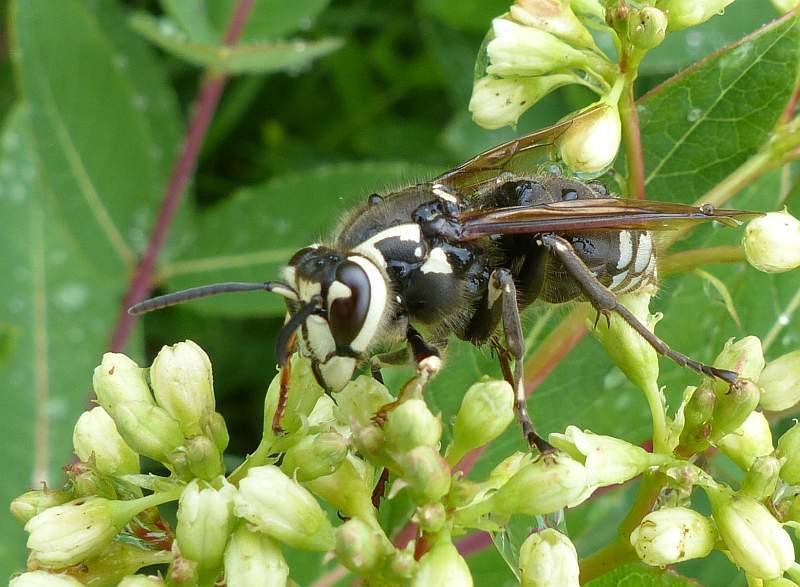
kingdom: Animalia
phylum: Arthropoda
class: Insecta
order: Hymenoptera
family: Vespidae
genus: Dolichovespula
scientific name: Dolichovespula maculata
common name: Bald-faced hornet
